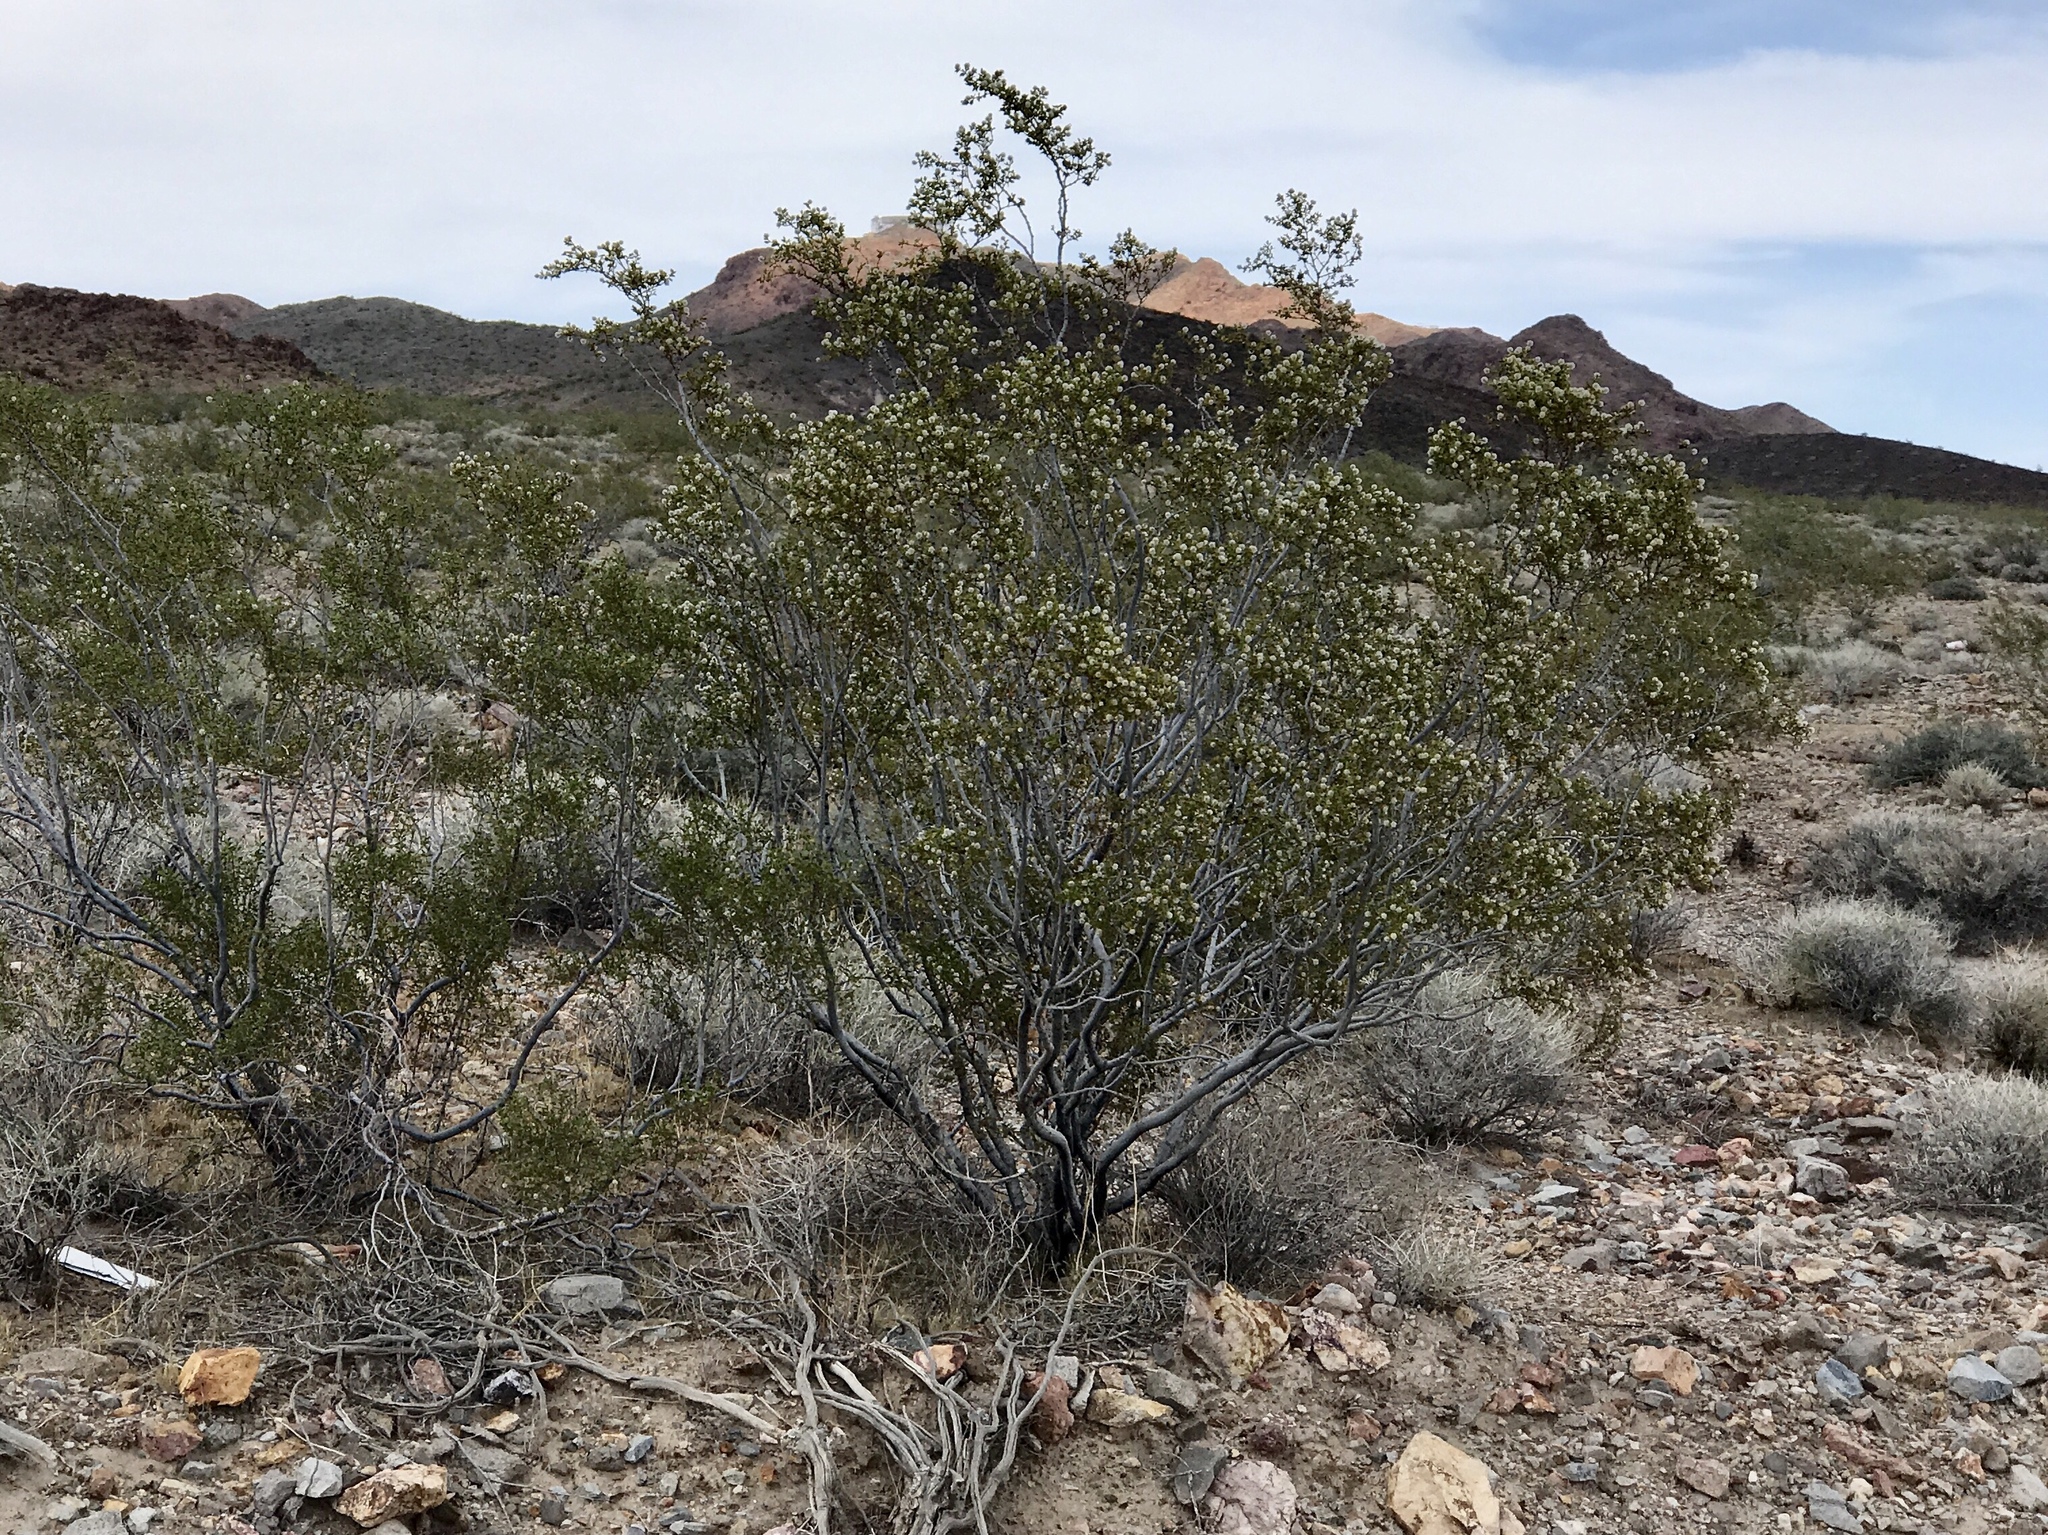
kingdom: Plantae
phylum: Tracheophyta
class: Magnoliopsida
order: Zygophyllales
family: Zygophyllaceae
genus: Larrea
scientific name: Larrea tridentata
